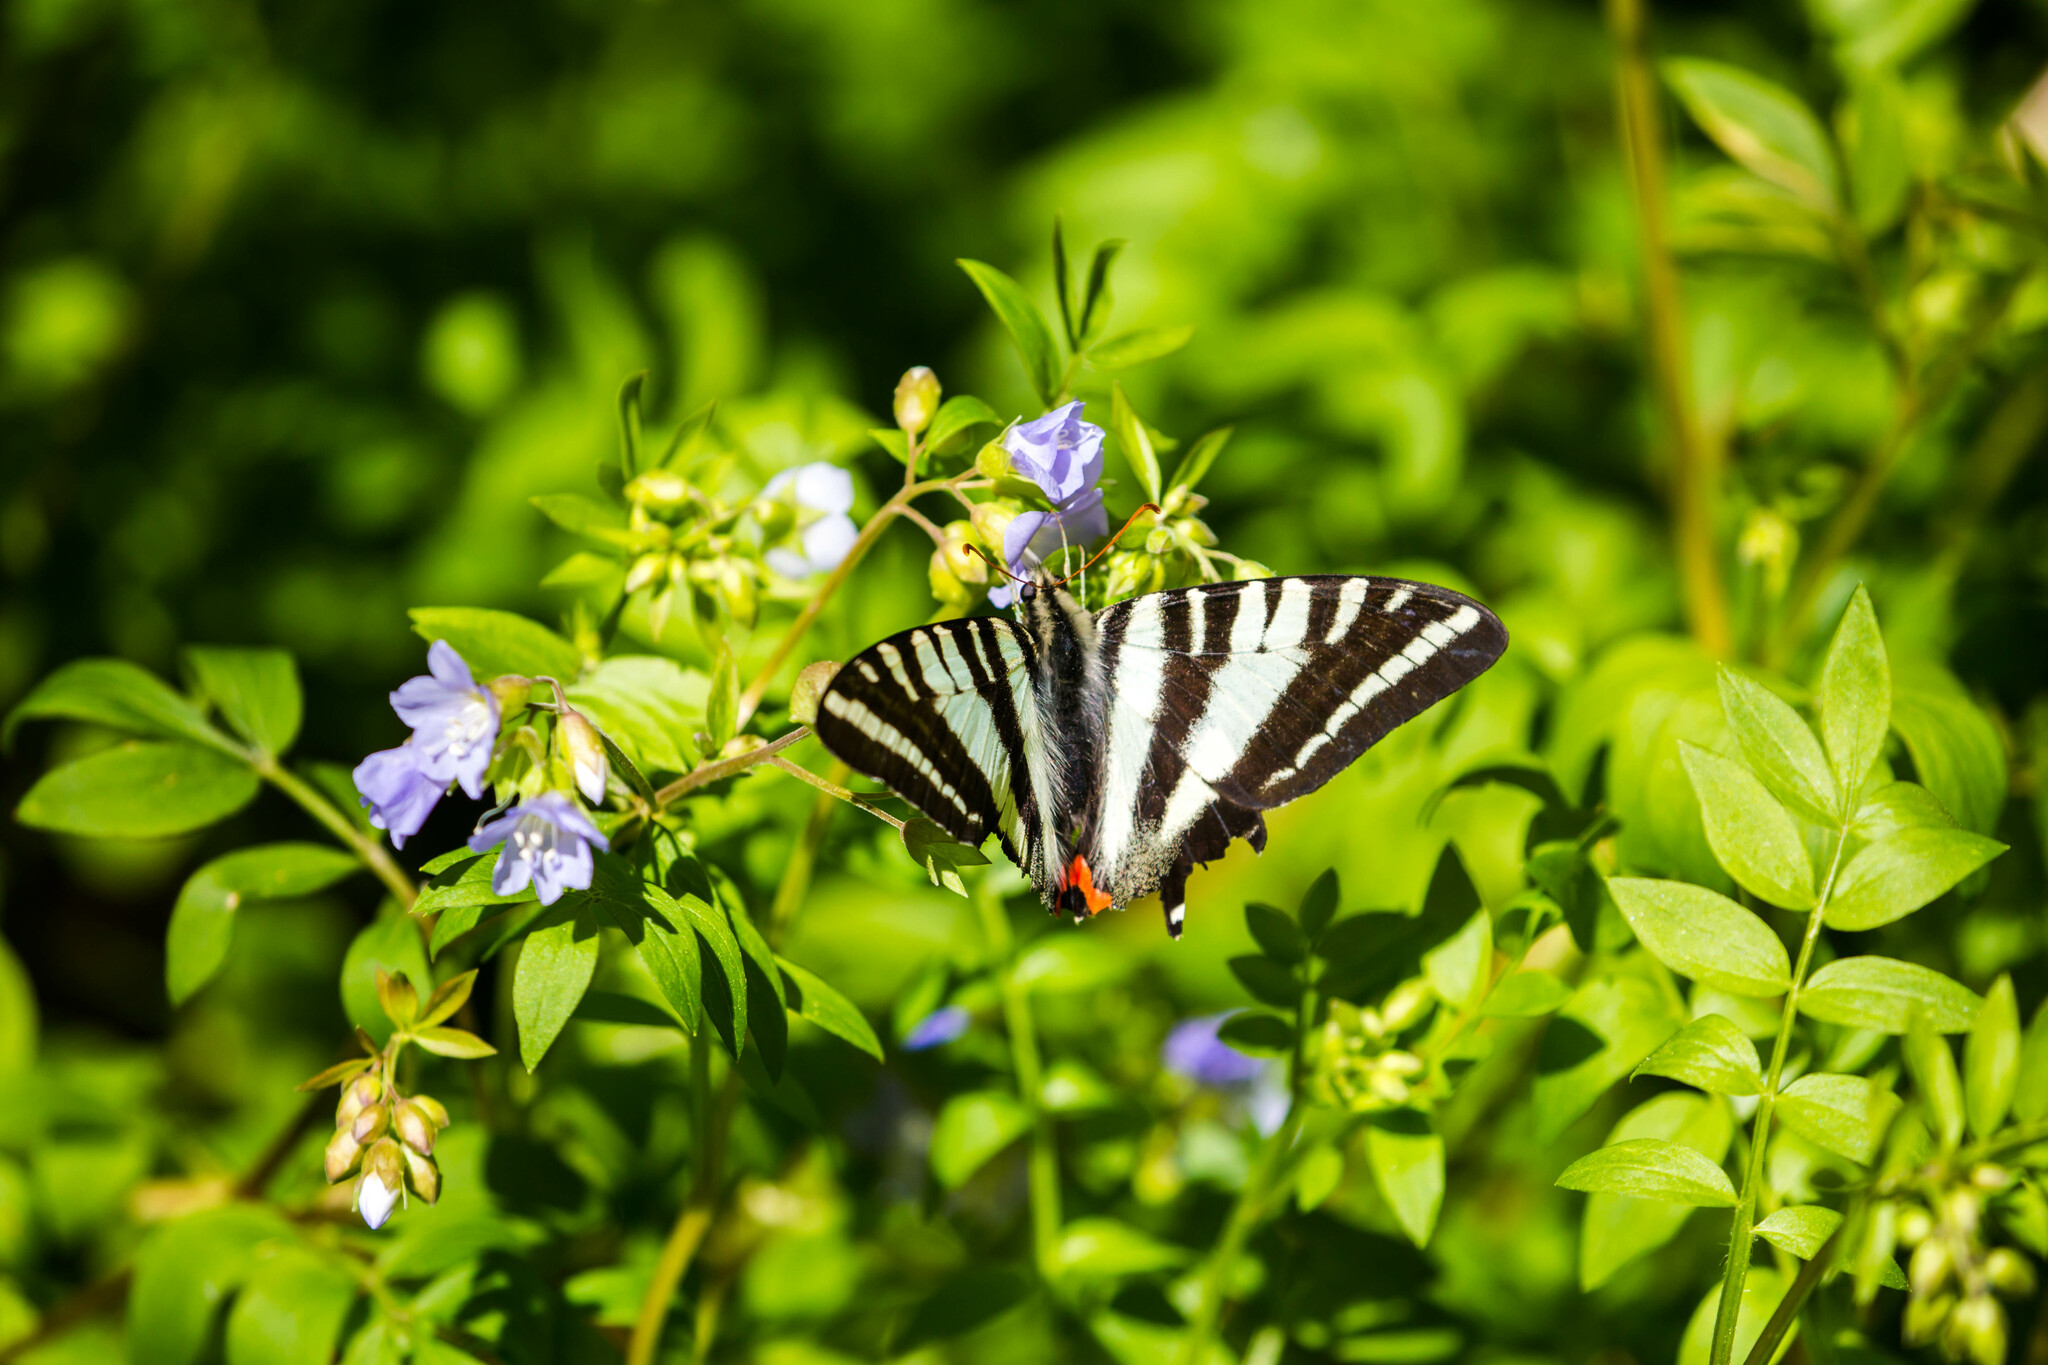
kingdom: Animalia
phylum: Arthropoda
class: Insecta
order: Lepidoptera
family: Papilionidae
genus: Protographium
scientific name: Protographium marcellus
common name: Zebra swallowtail
